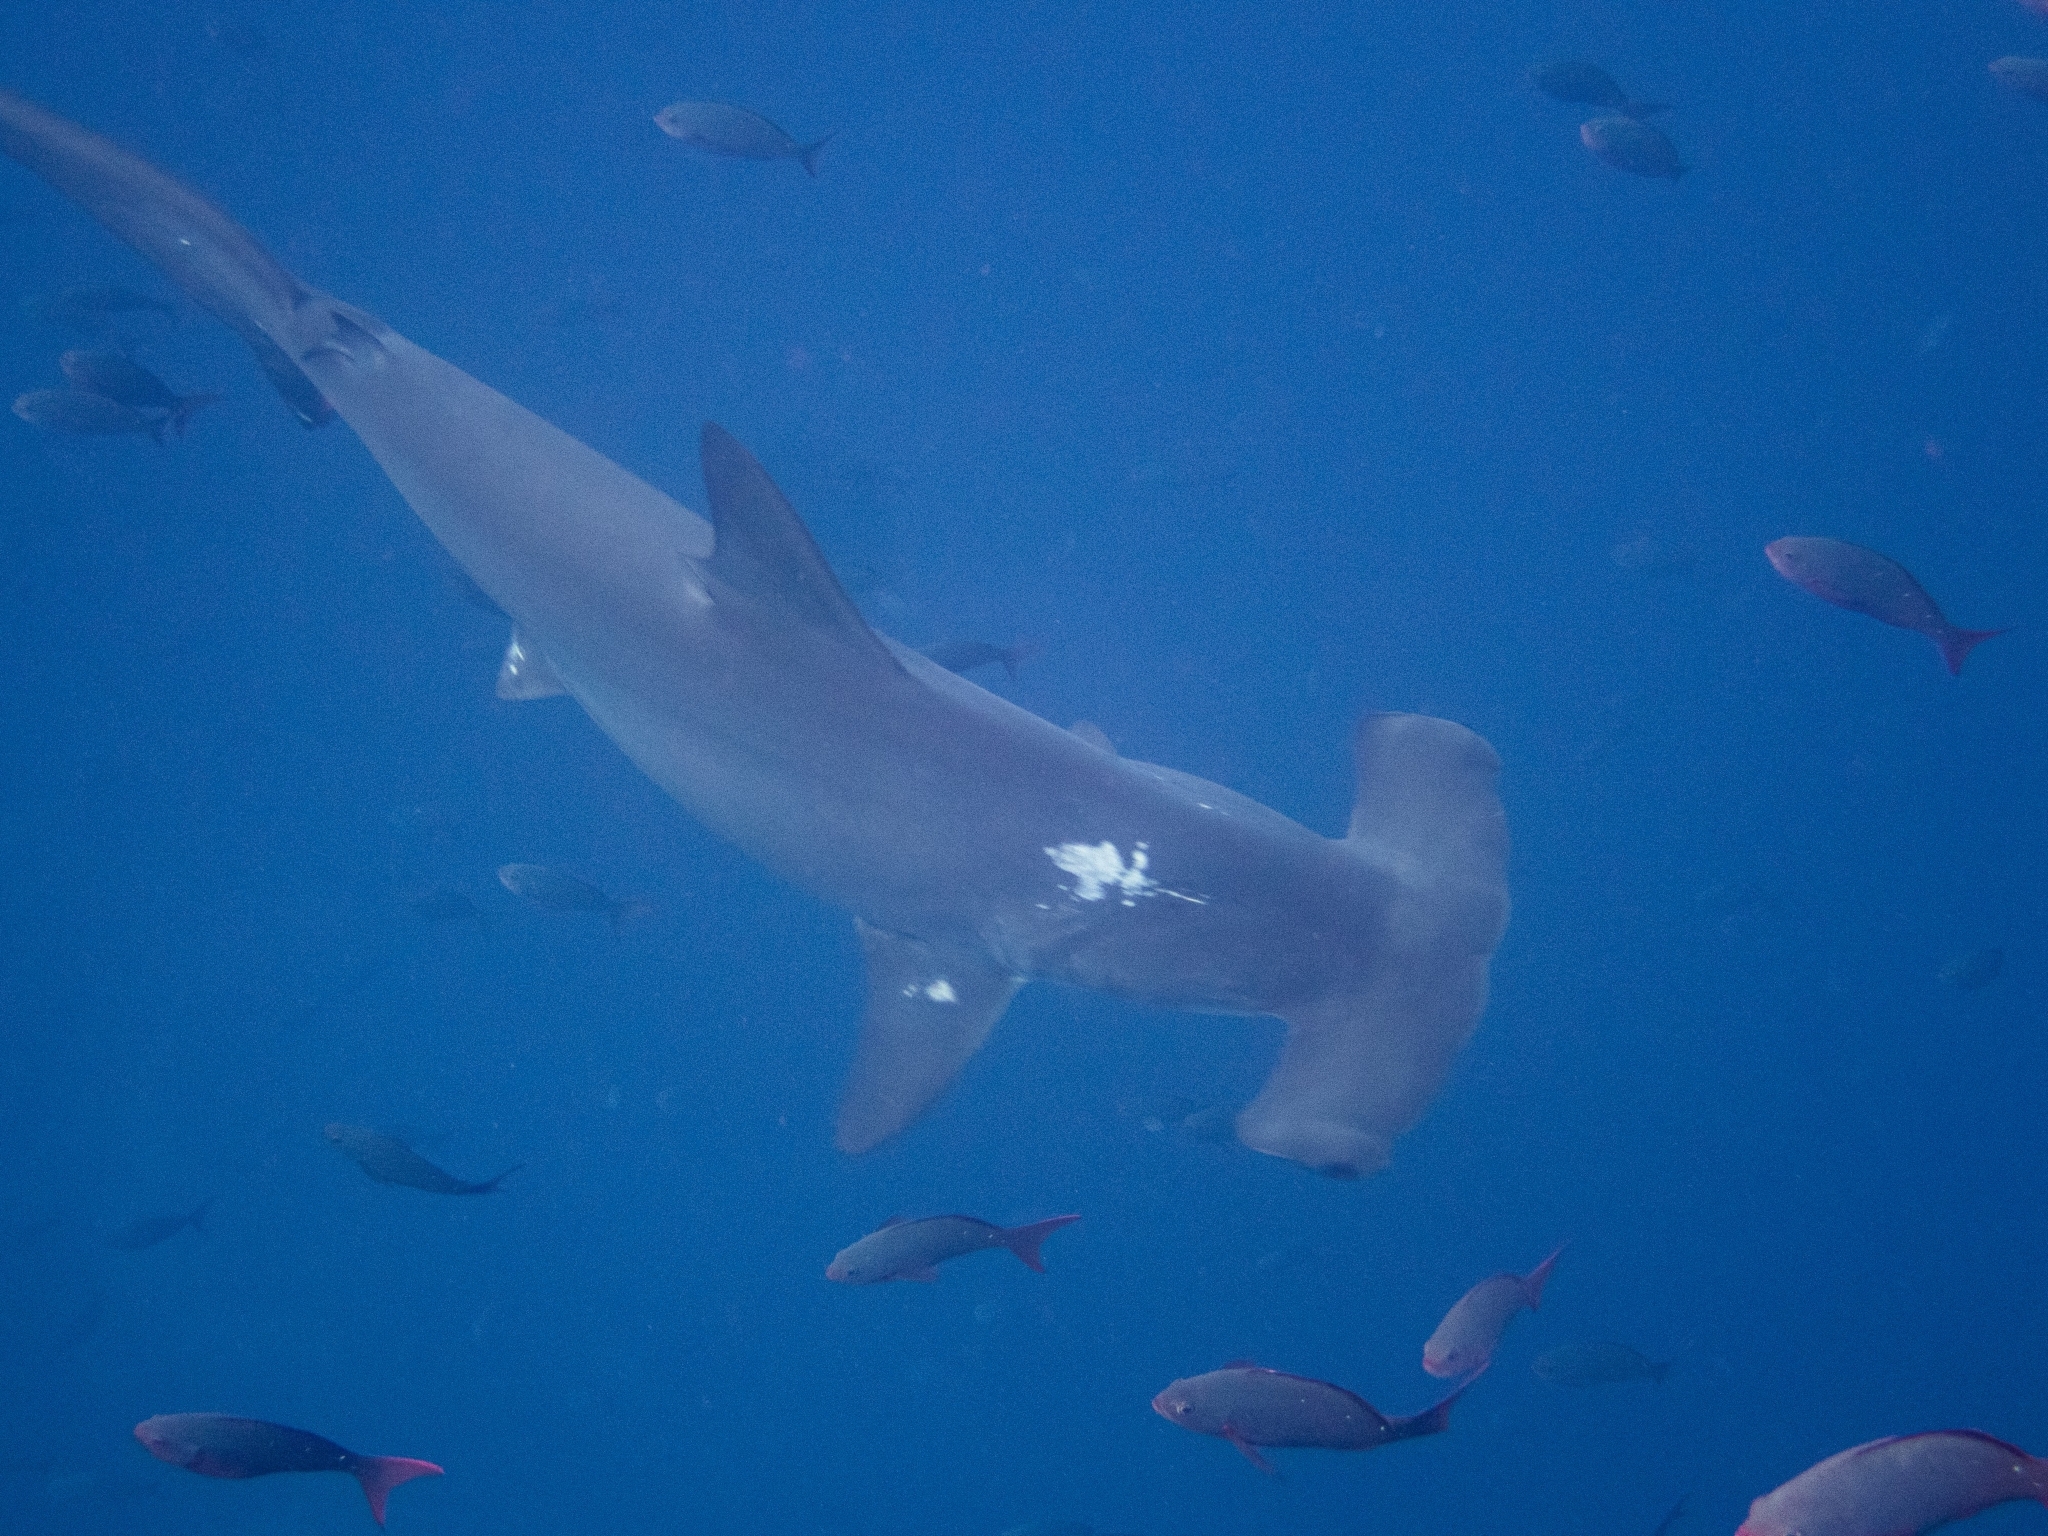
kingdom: Animalia
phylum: Chordata
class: Elasmobranchii
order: Carcharhiniformes
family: Sphyrnidae
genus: Sphyrna
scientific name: Sphyrna lewini
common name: Scalloped hammerhead
